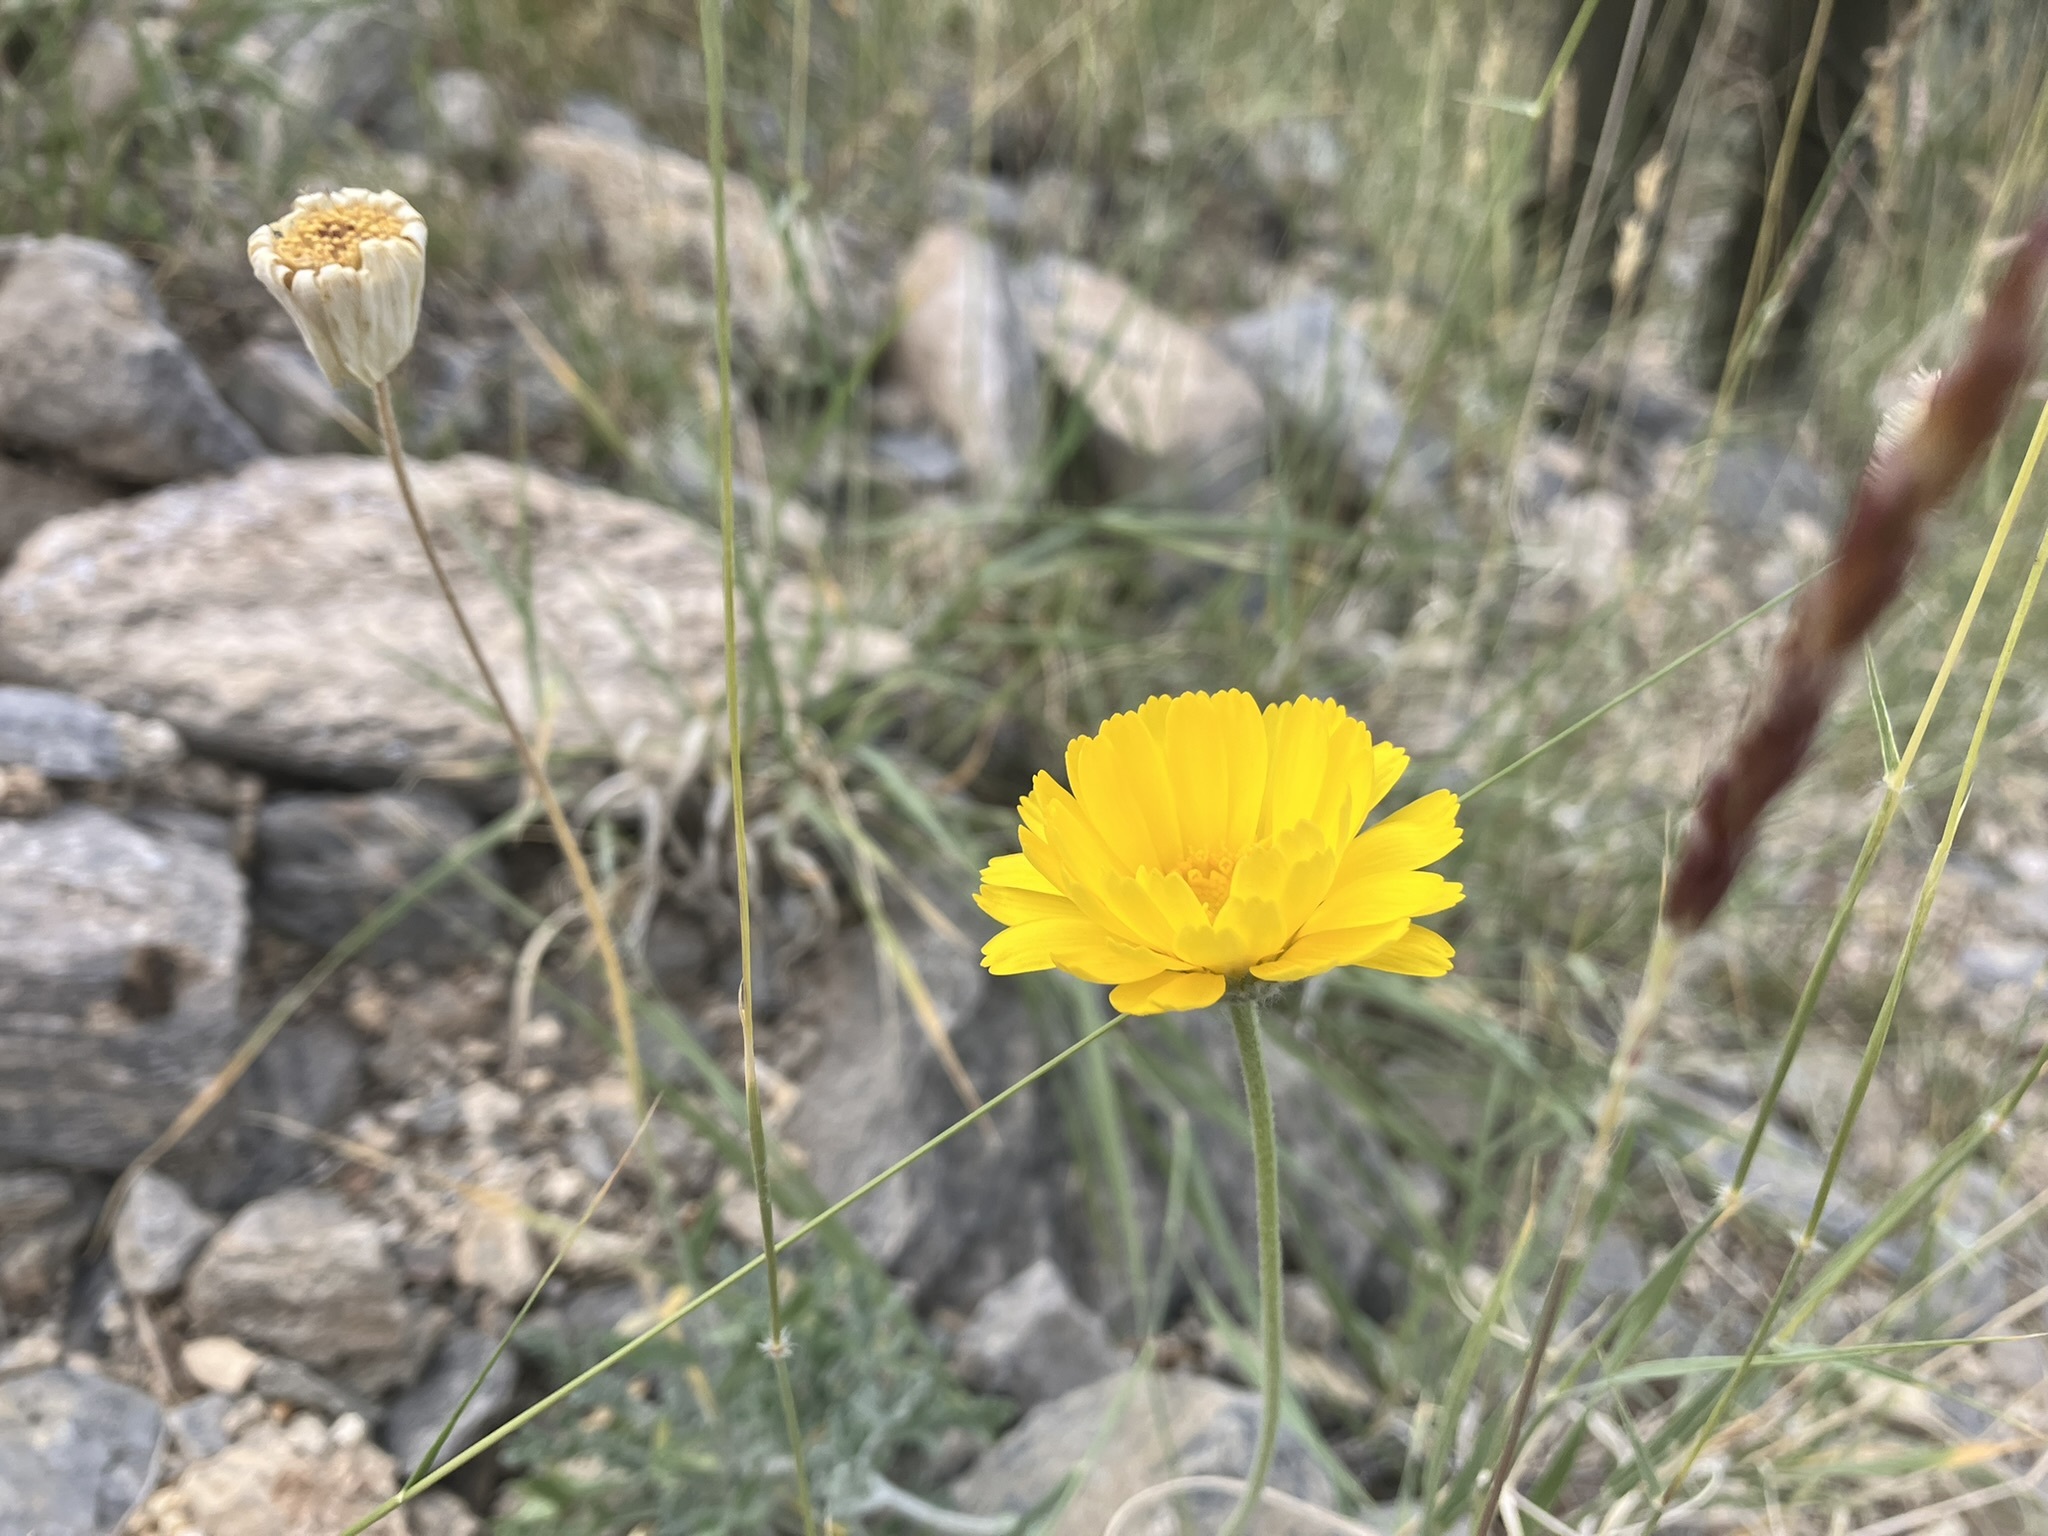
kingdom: Plantae
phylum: Tracheophyta
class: Magnoliopsida
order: Asterales
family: Asteraceae
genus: Baileya
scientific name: Baileya multiradiata
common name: Desert-marigold
